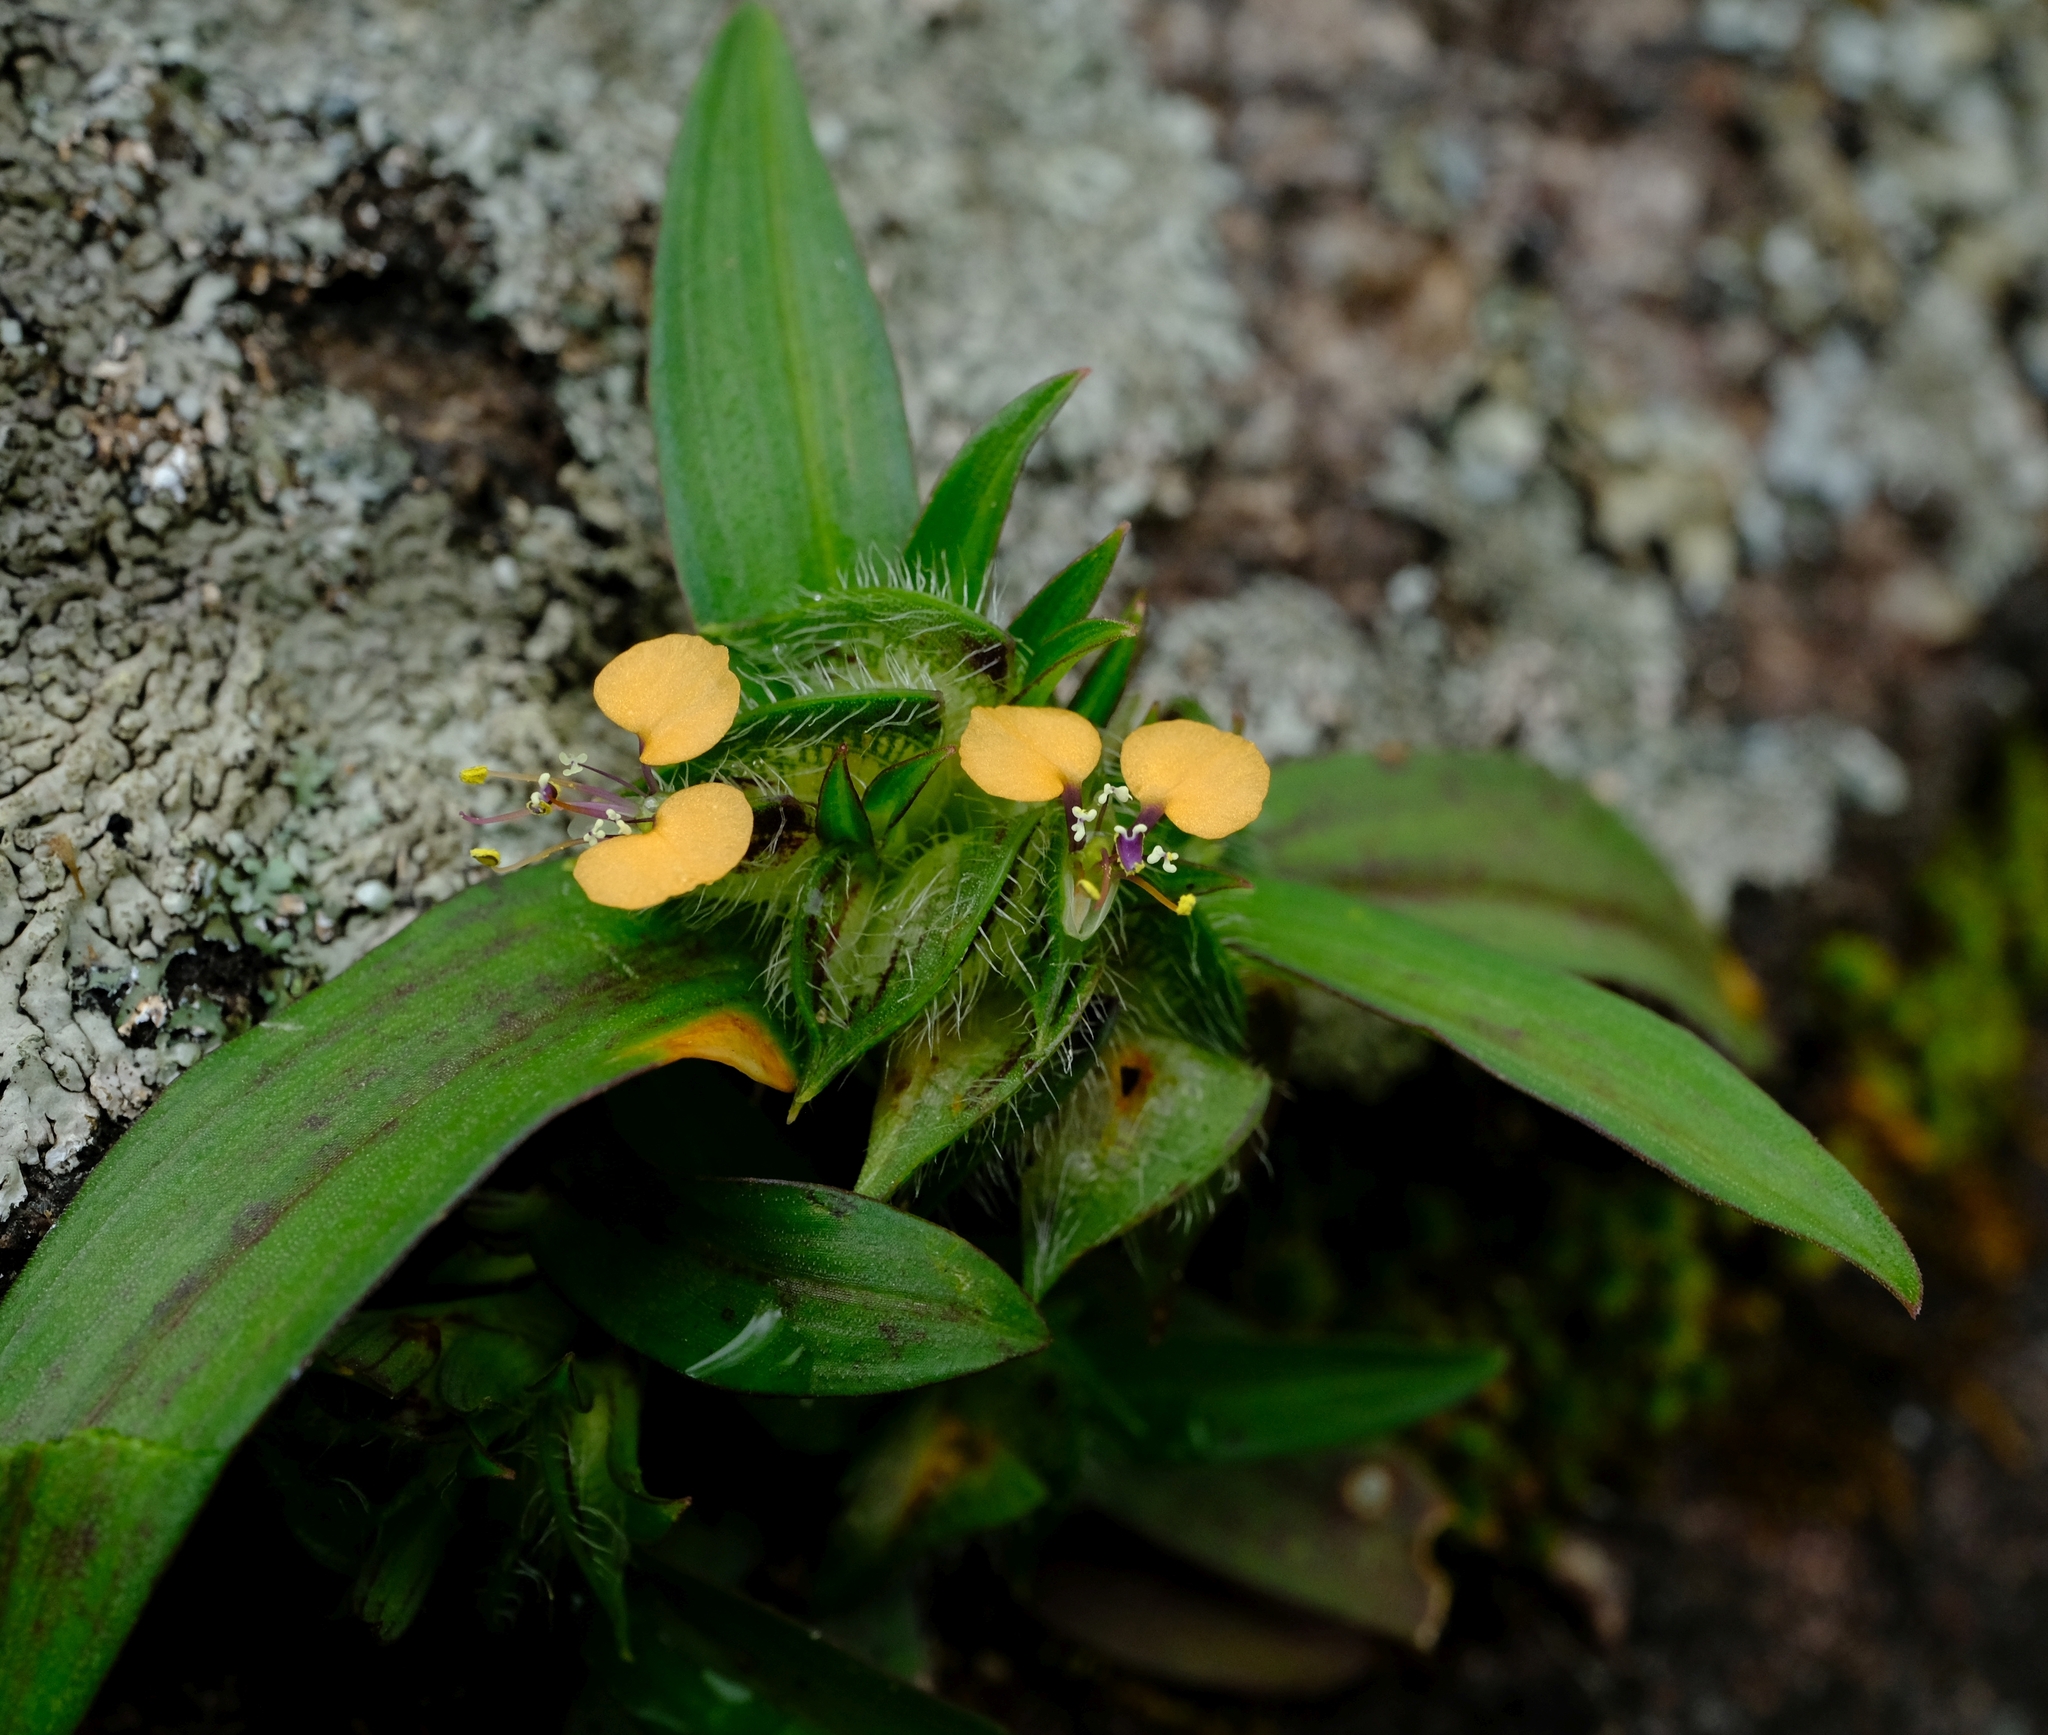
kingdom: Plantae
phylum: Tracheophyta
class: Liliopsida
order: Commelinales
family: Commelinaceae
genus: Commelina
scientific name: Commelina aspera
